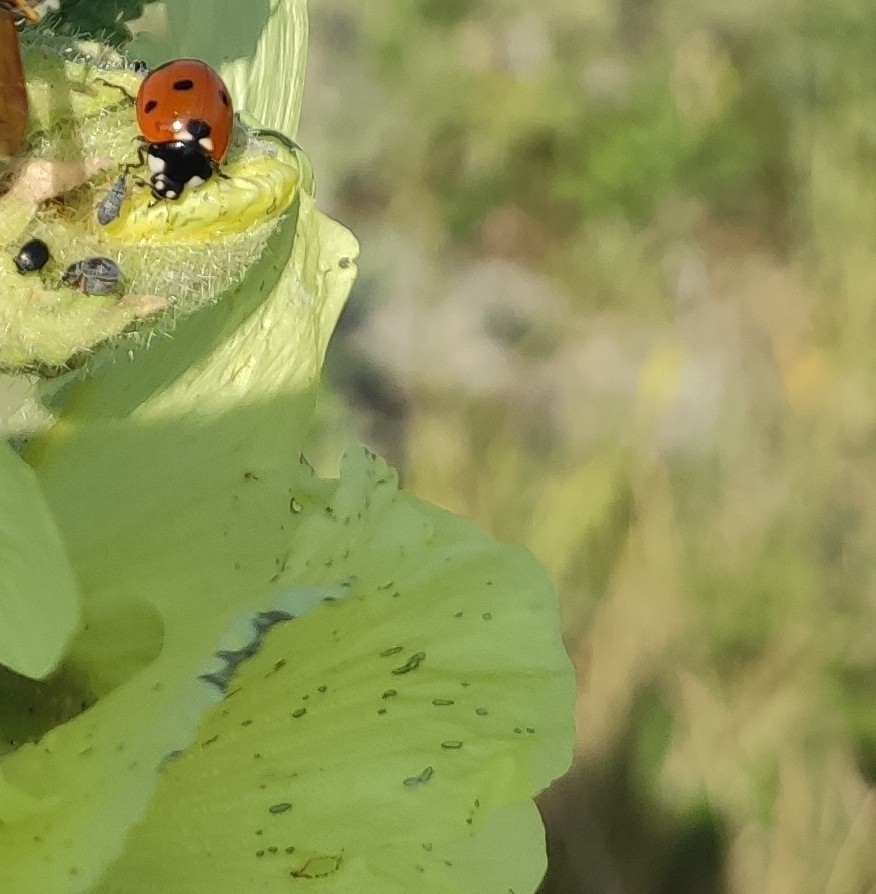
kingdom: Animalia
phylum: Arthropoda
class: Insecta
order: Coleoptera
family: Coccinellidae
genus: Coccinella
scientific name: Coccinella septempunctata
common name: Sevenspotted lady beetle
